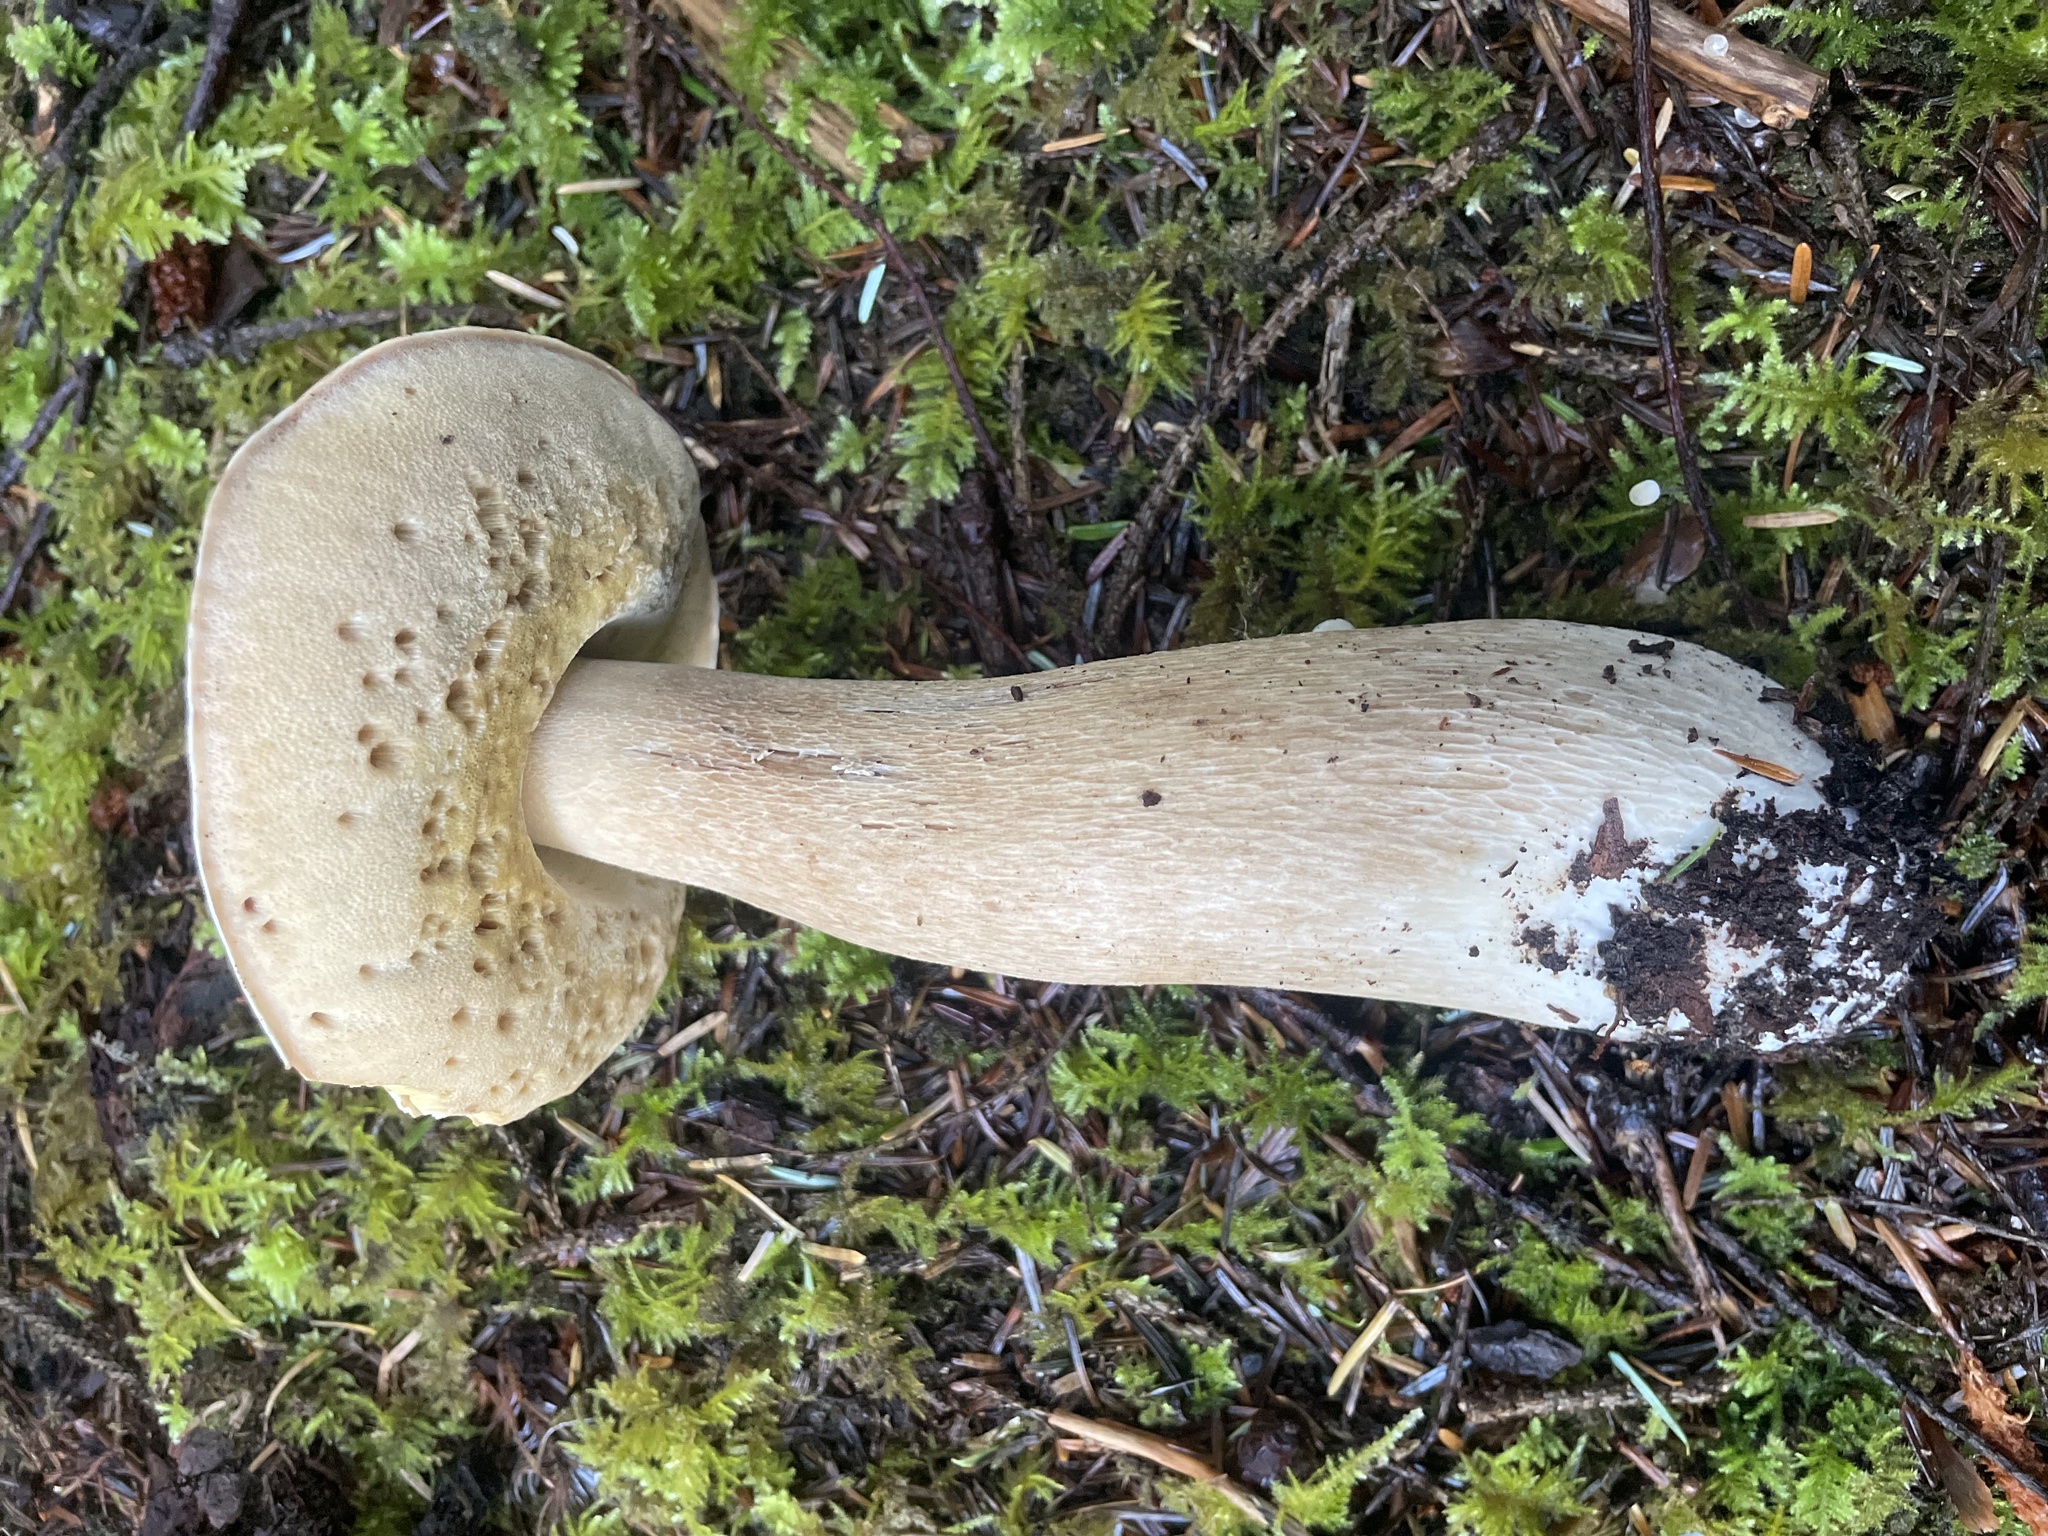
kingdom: Fungi
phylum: Basidiomycota
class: Agaricomycetes
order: Boletales
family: Boletaceae
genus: Boletus
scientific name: Boletus edulis
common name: Cep
